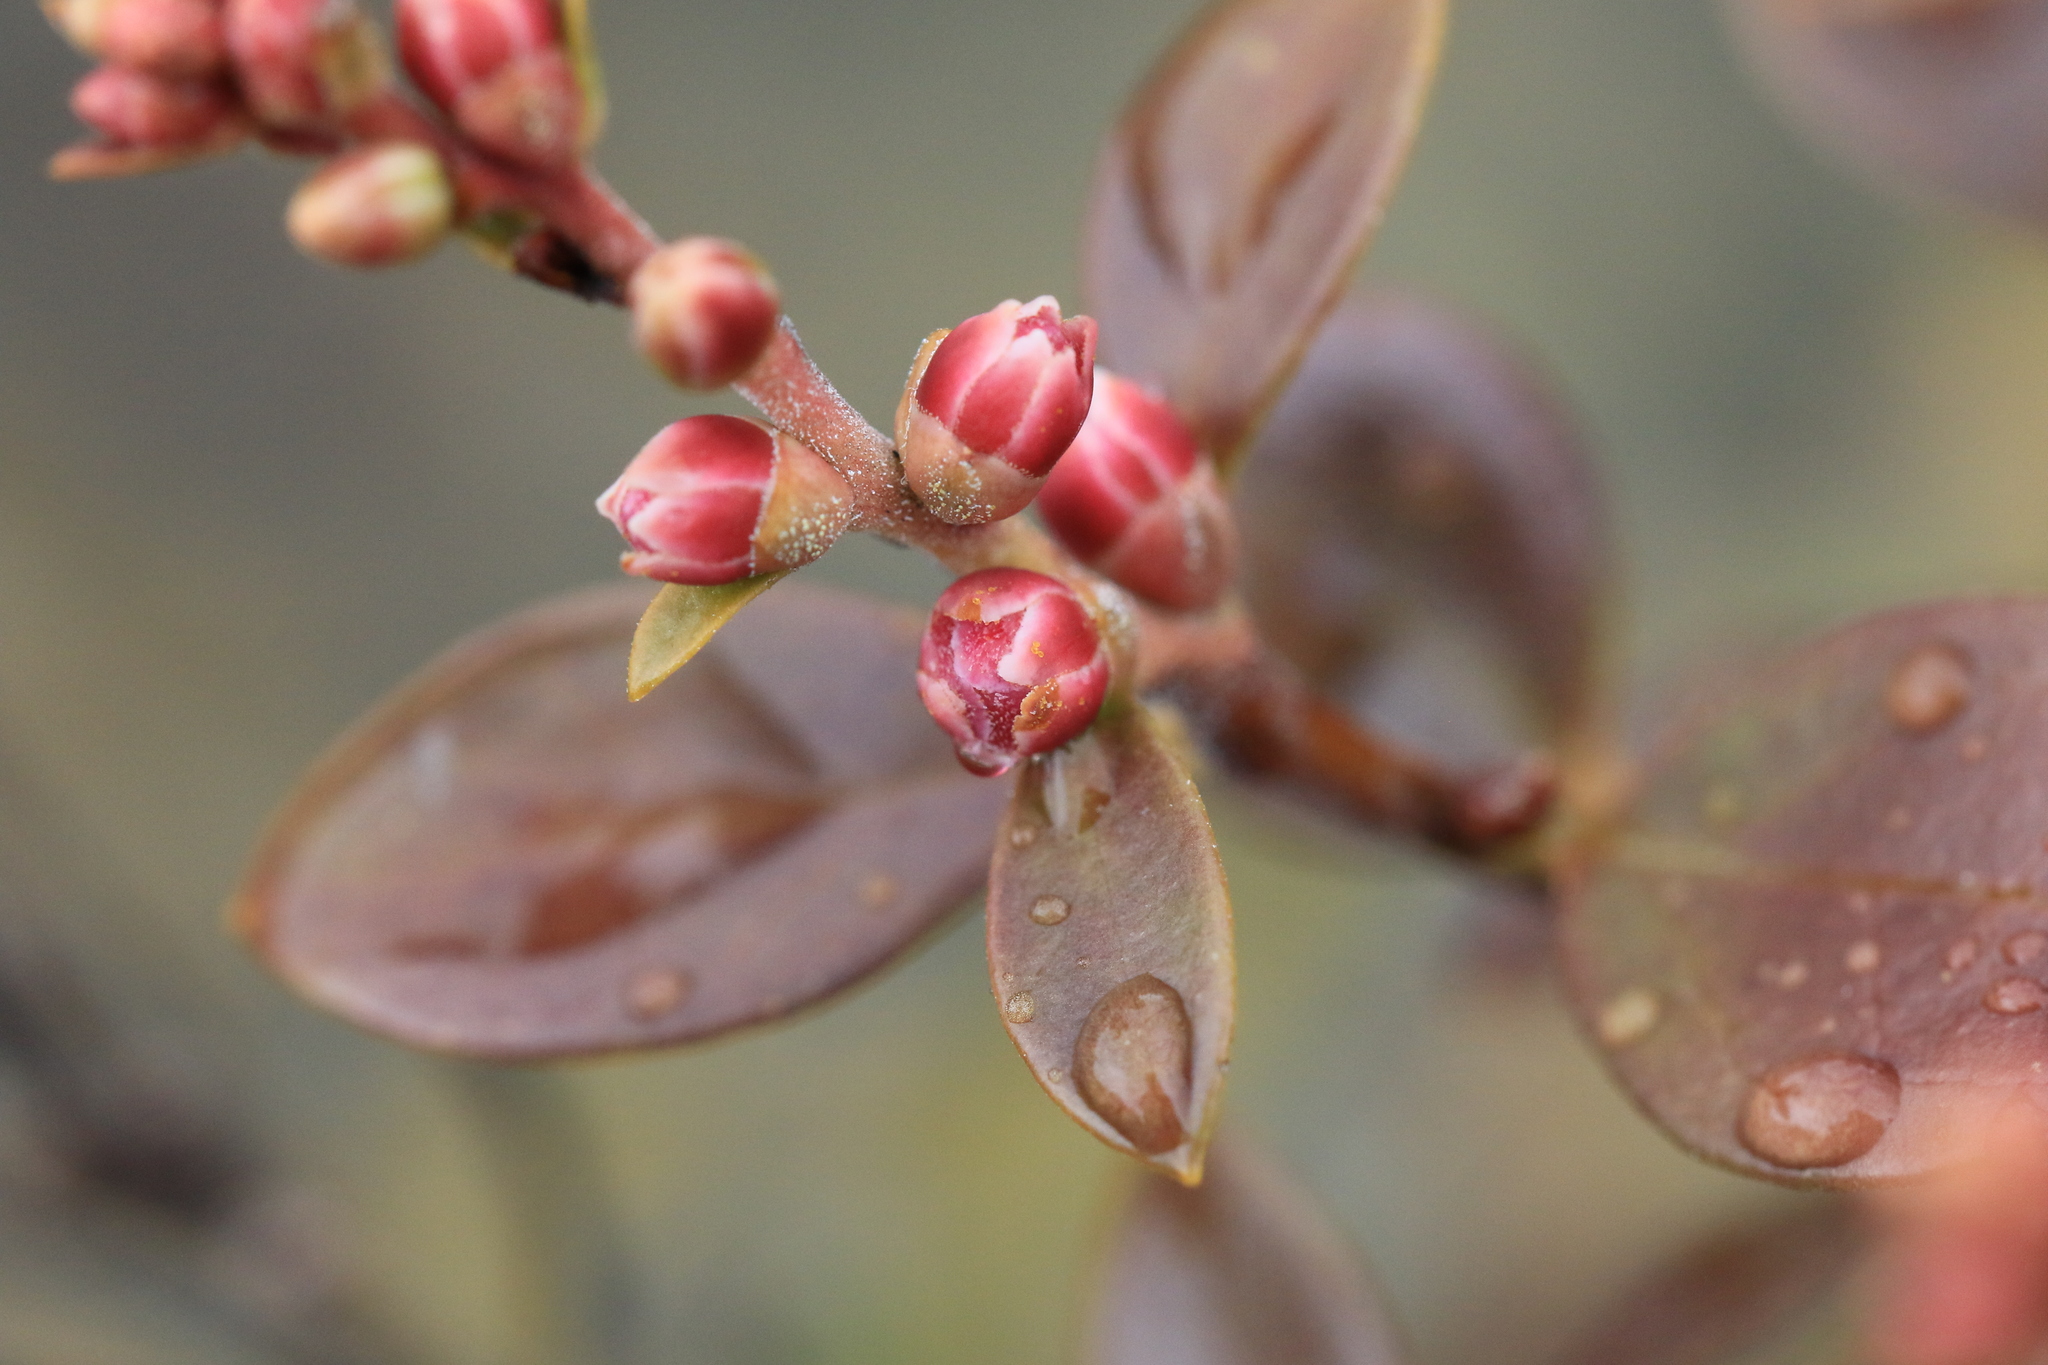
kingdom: Plantae
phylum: Tracheophyta
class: Magnoliopsida
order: Ericales
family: Ericaceae
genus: Kalmiopsis
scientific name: Kalmiopsis leachiana
